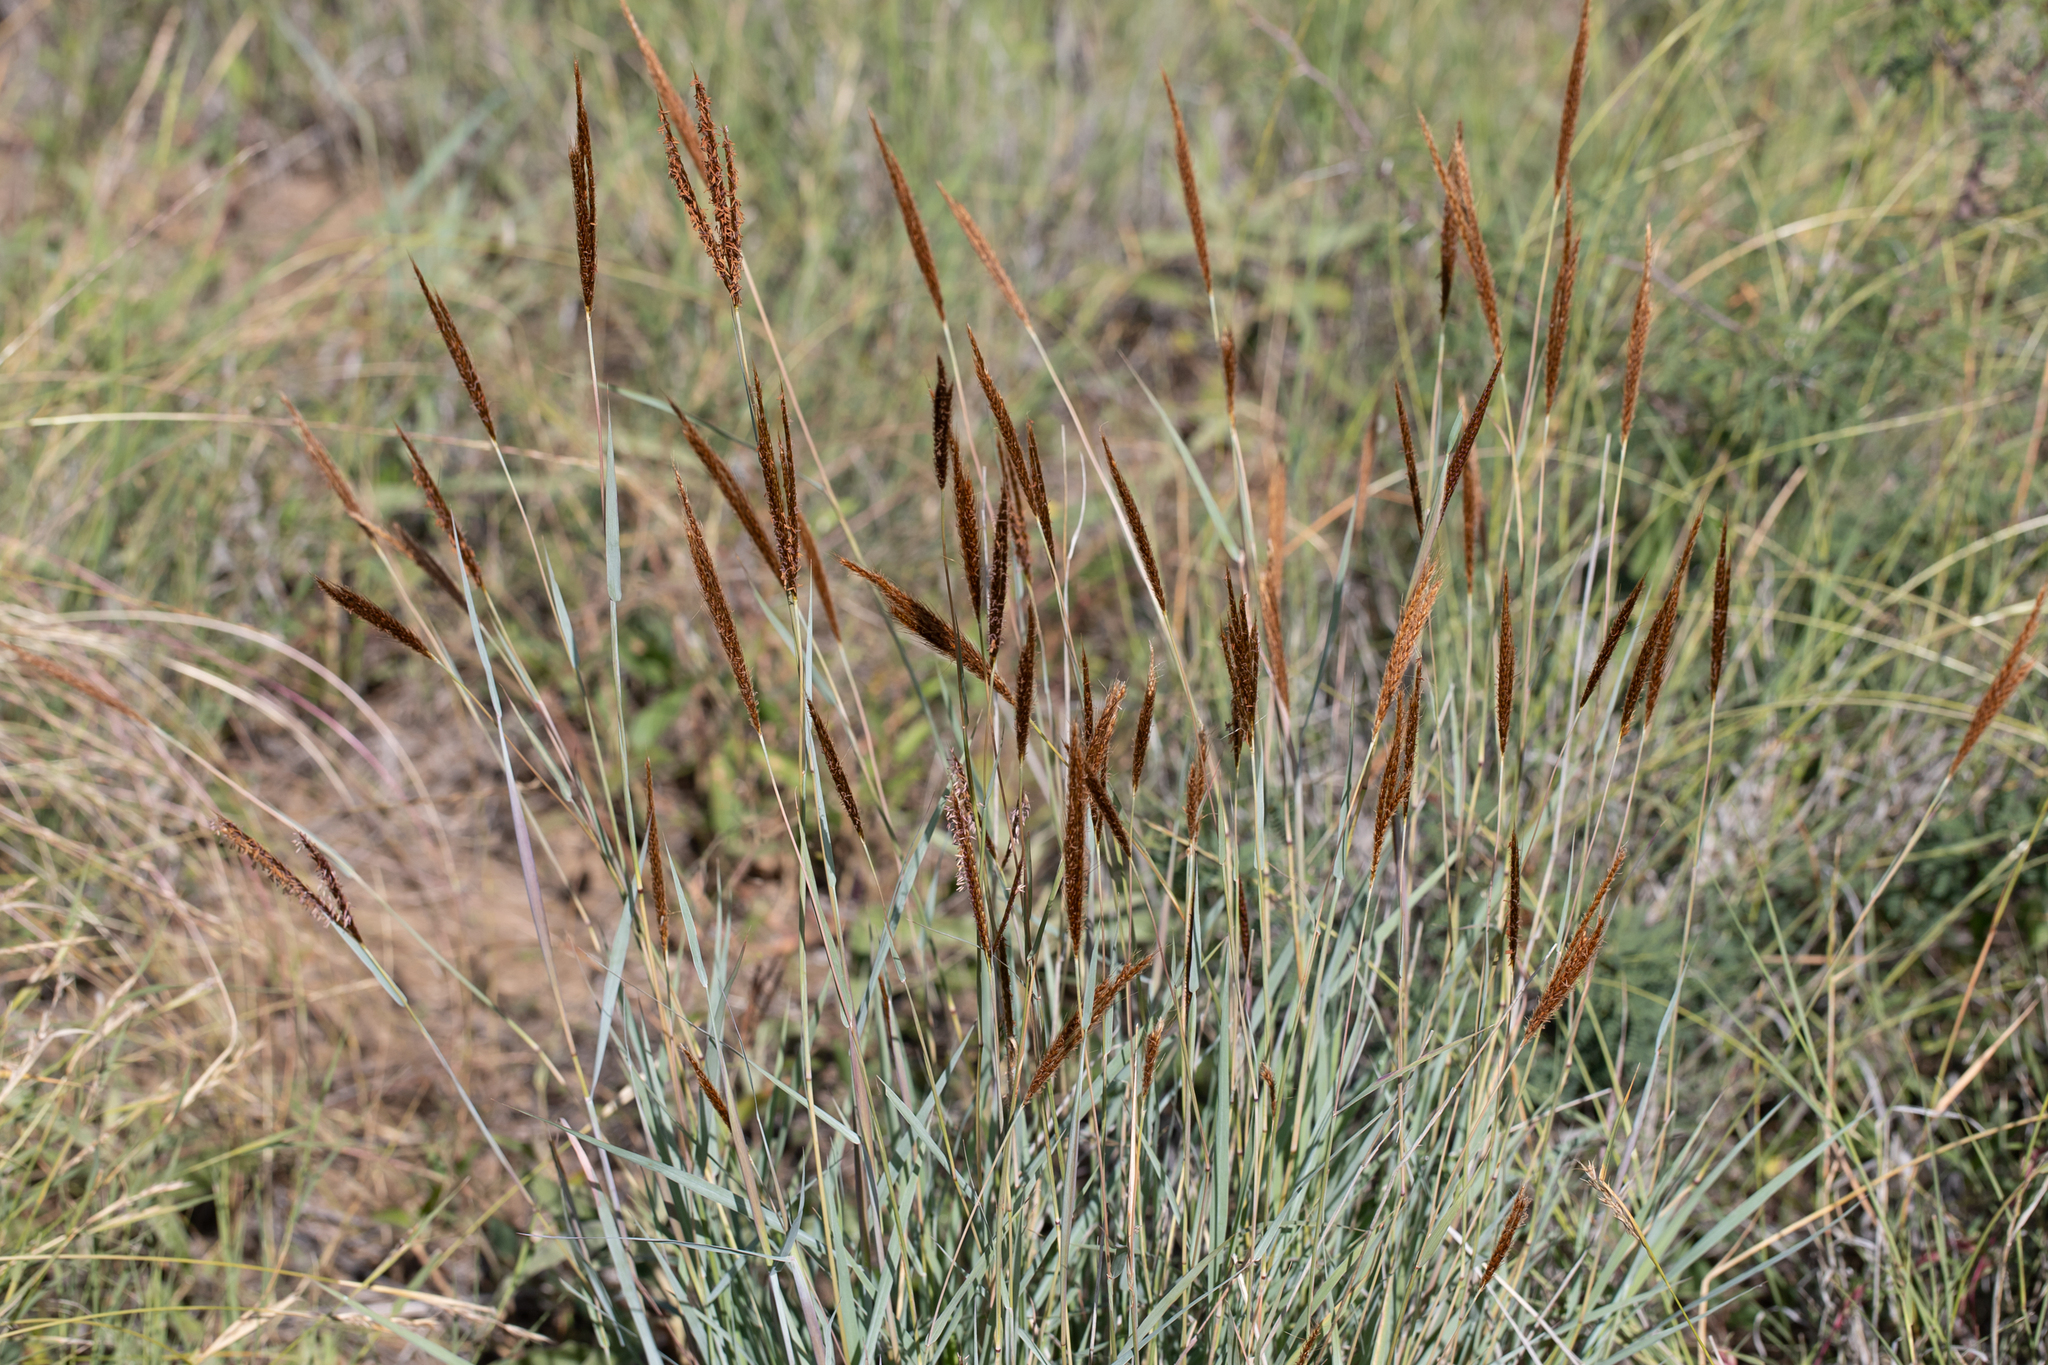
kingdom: Plantae
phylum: Tracheophyta
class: Liliopsida
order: Poales
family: Poaceae
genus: Eulalia
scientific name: Eulalia aurea
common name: Silky browntop
